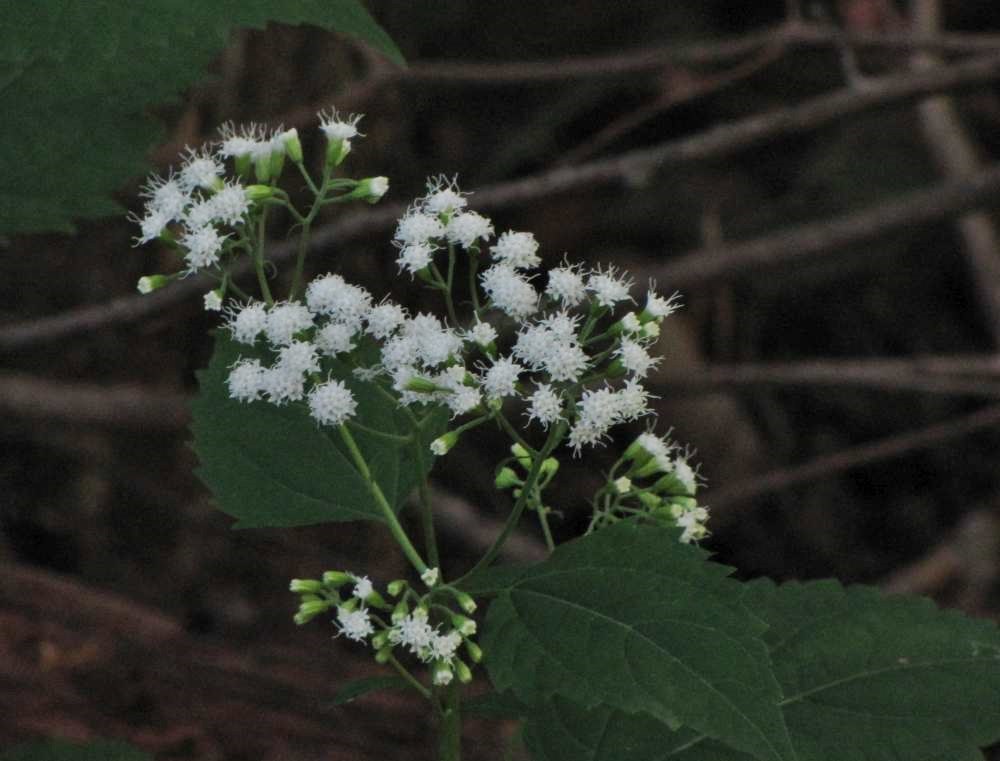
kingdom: Plantae
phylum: Tracheophyta
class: Magnoliopsida
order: Asterales
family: Asteraceae
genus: Ageratina
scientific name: Ageratina altissima
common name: White snakeroot
